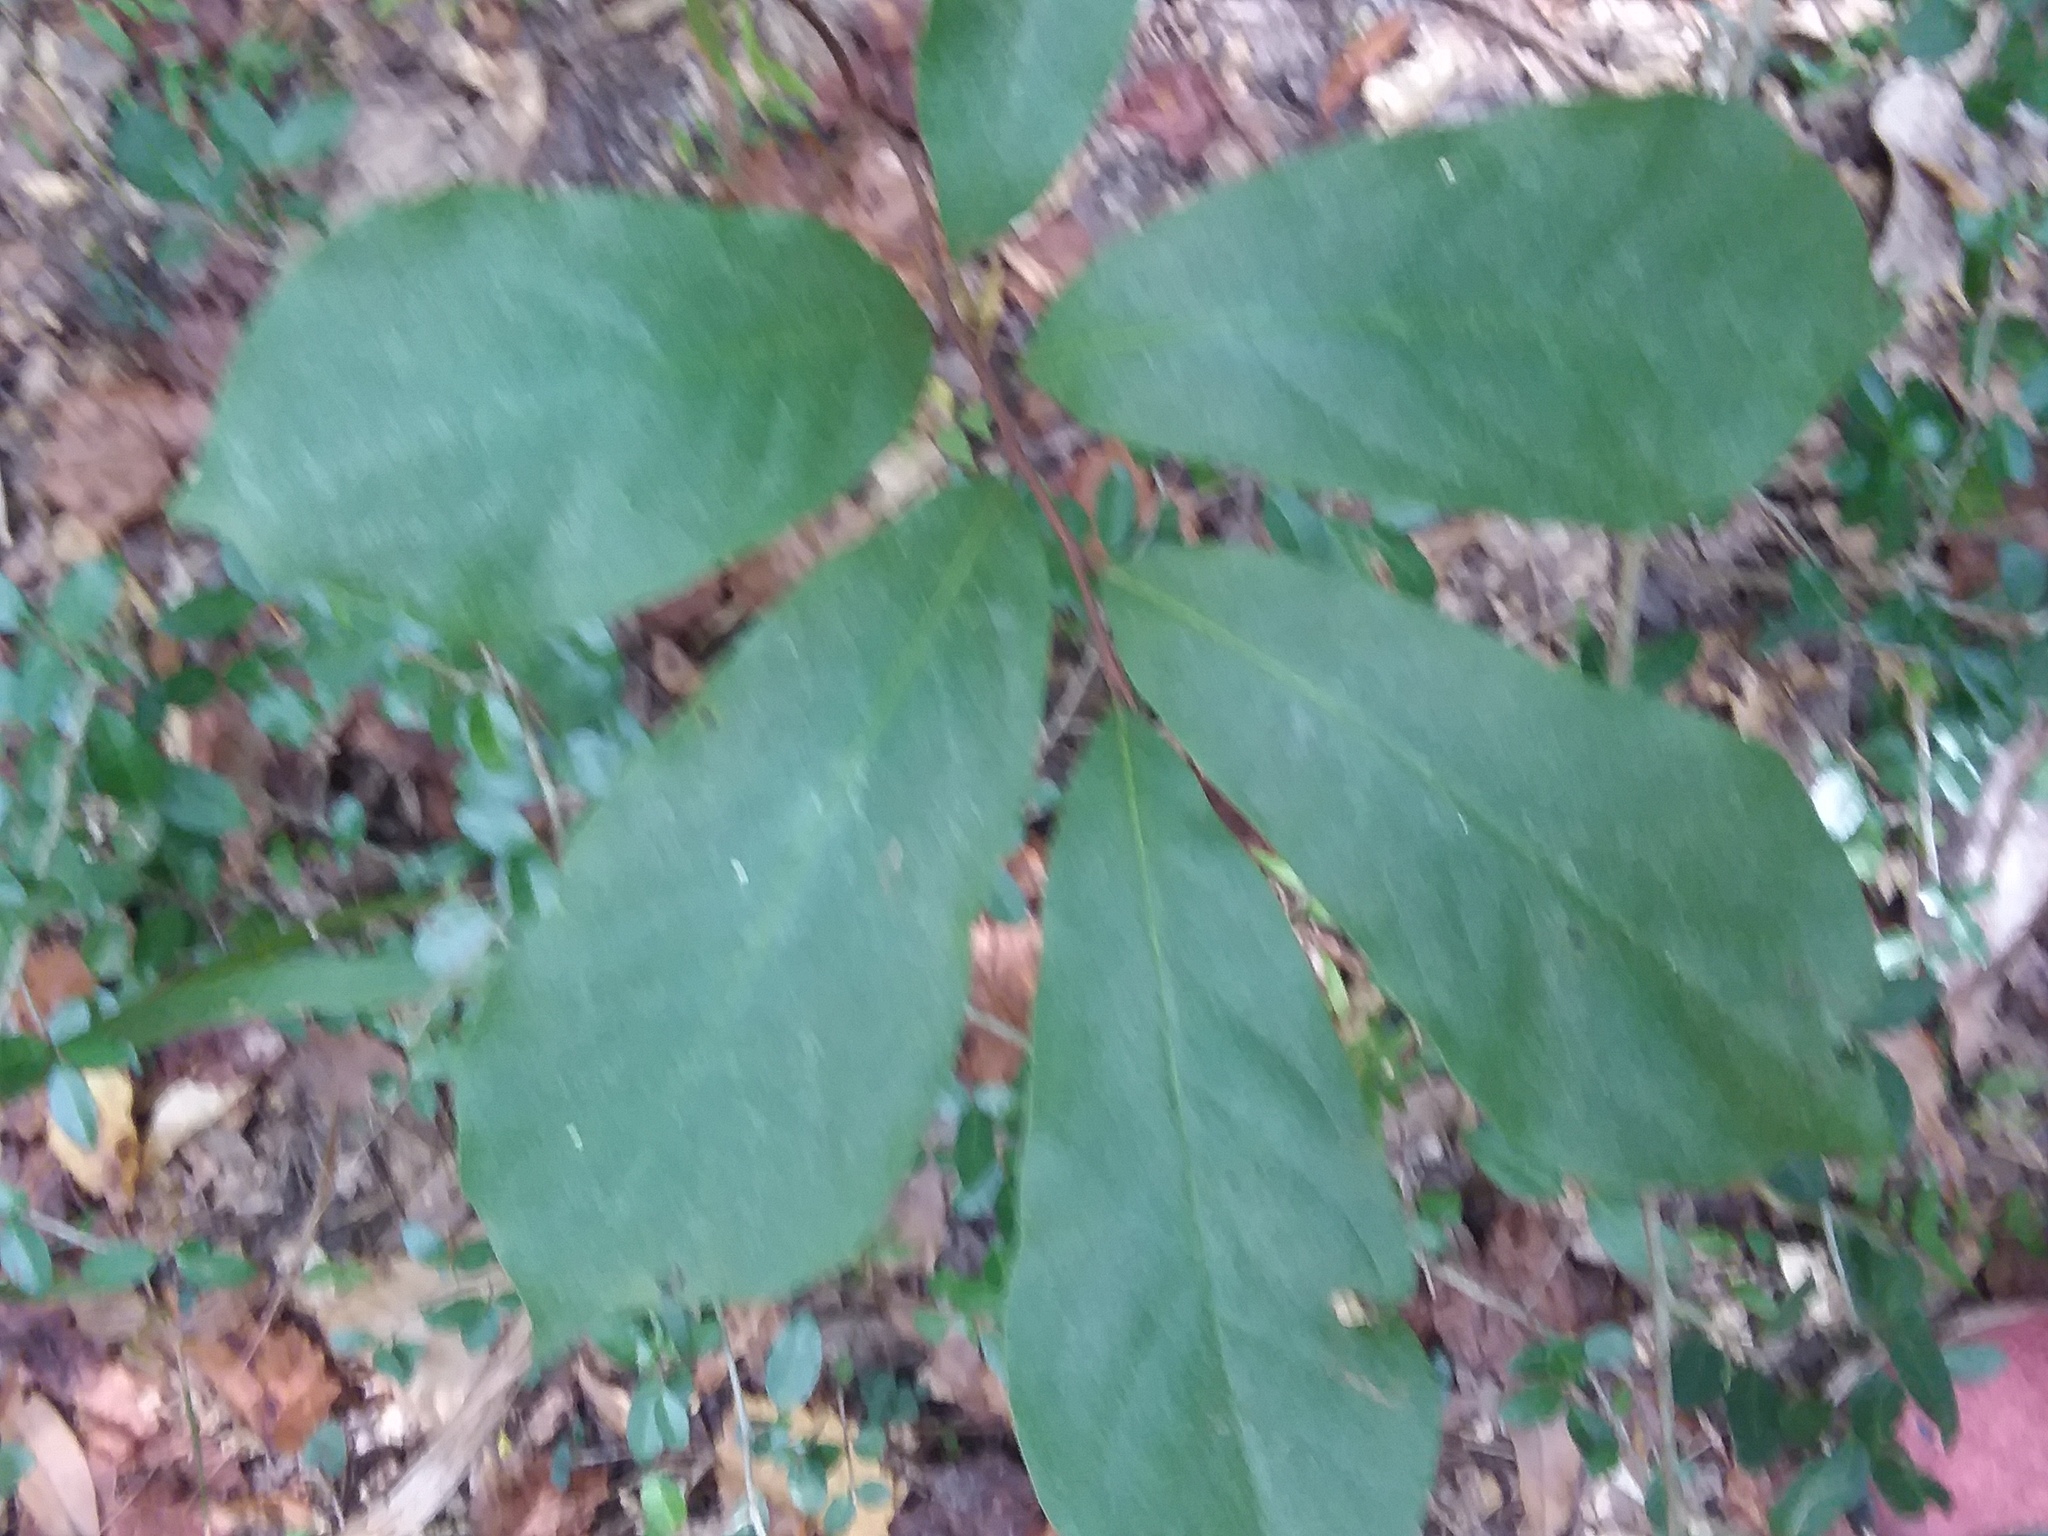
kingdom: Plantae
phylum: Tracheophyta
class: Magnoliopsida
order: Magnoliales
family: Annonaceae
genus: Asimina
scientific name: Asimina parviflora
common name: Dwarf pawpaw
